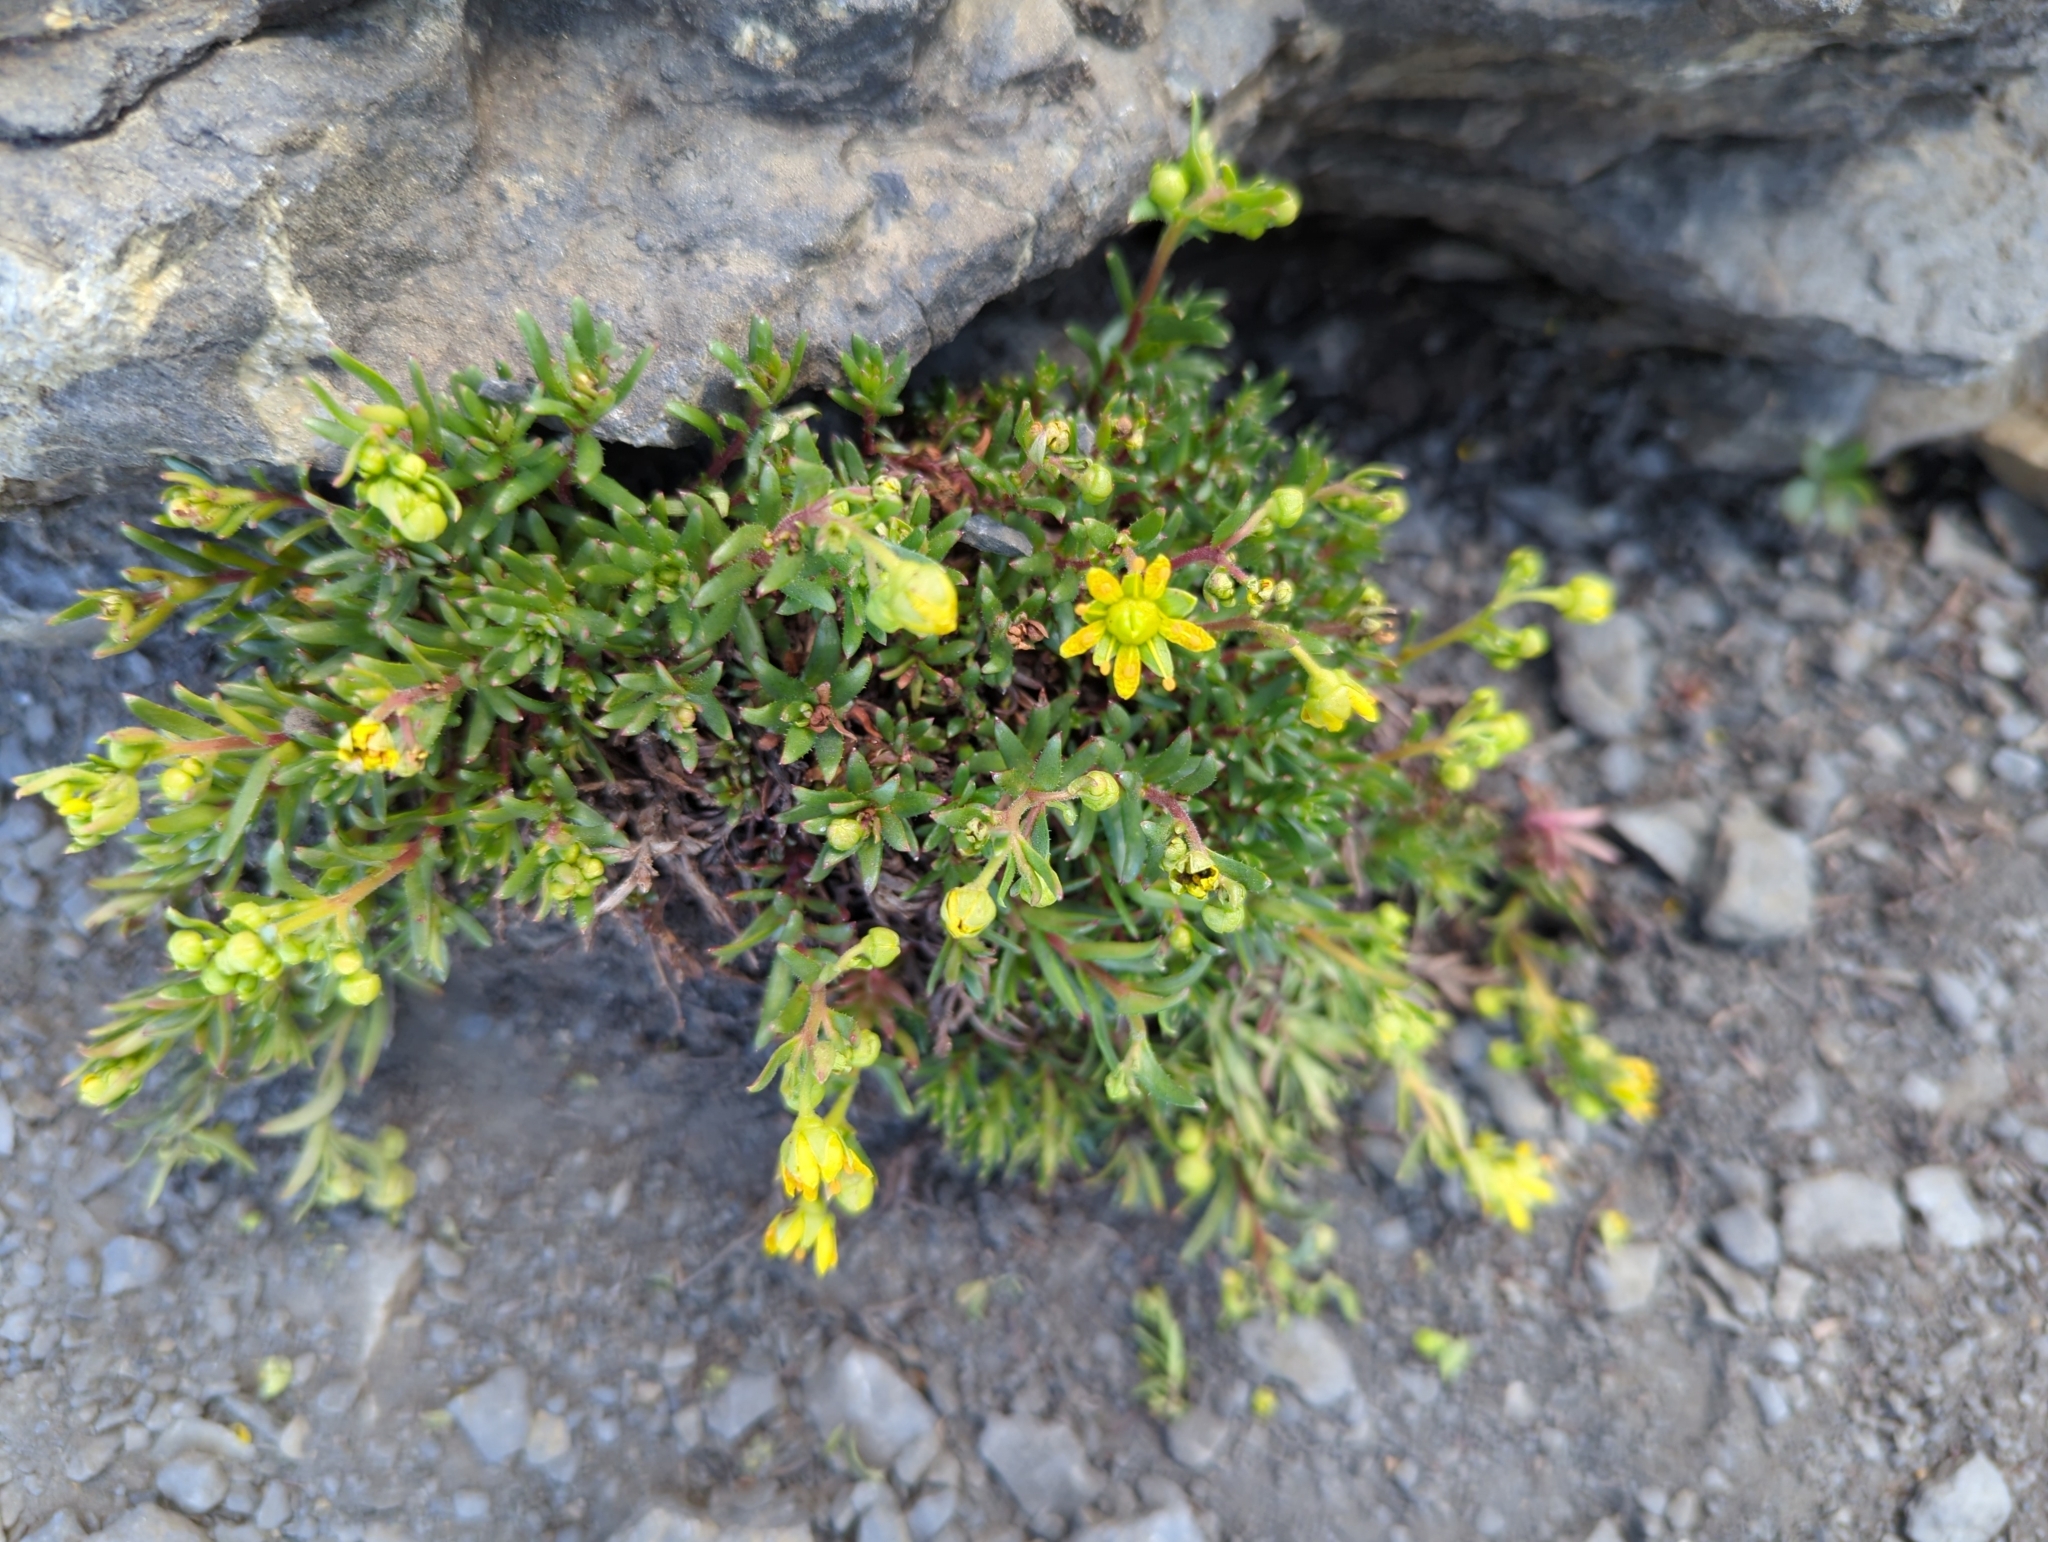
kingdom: Plantae
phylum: Tracheophyta
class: Magnoliopsida
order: Saxifragales
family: Saxifragaceae
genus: Saxifraga
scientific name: Saxifraga aizoides
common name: Yellow mountain saxifrage
